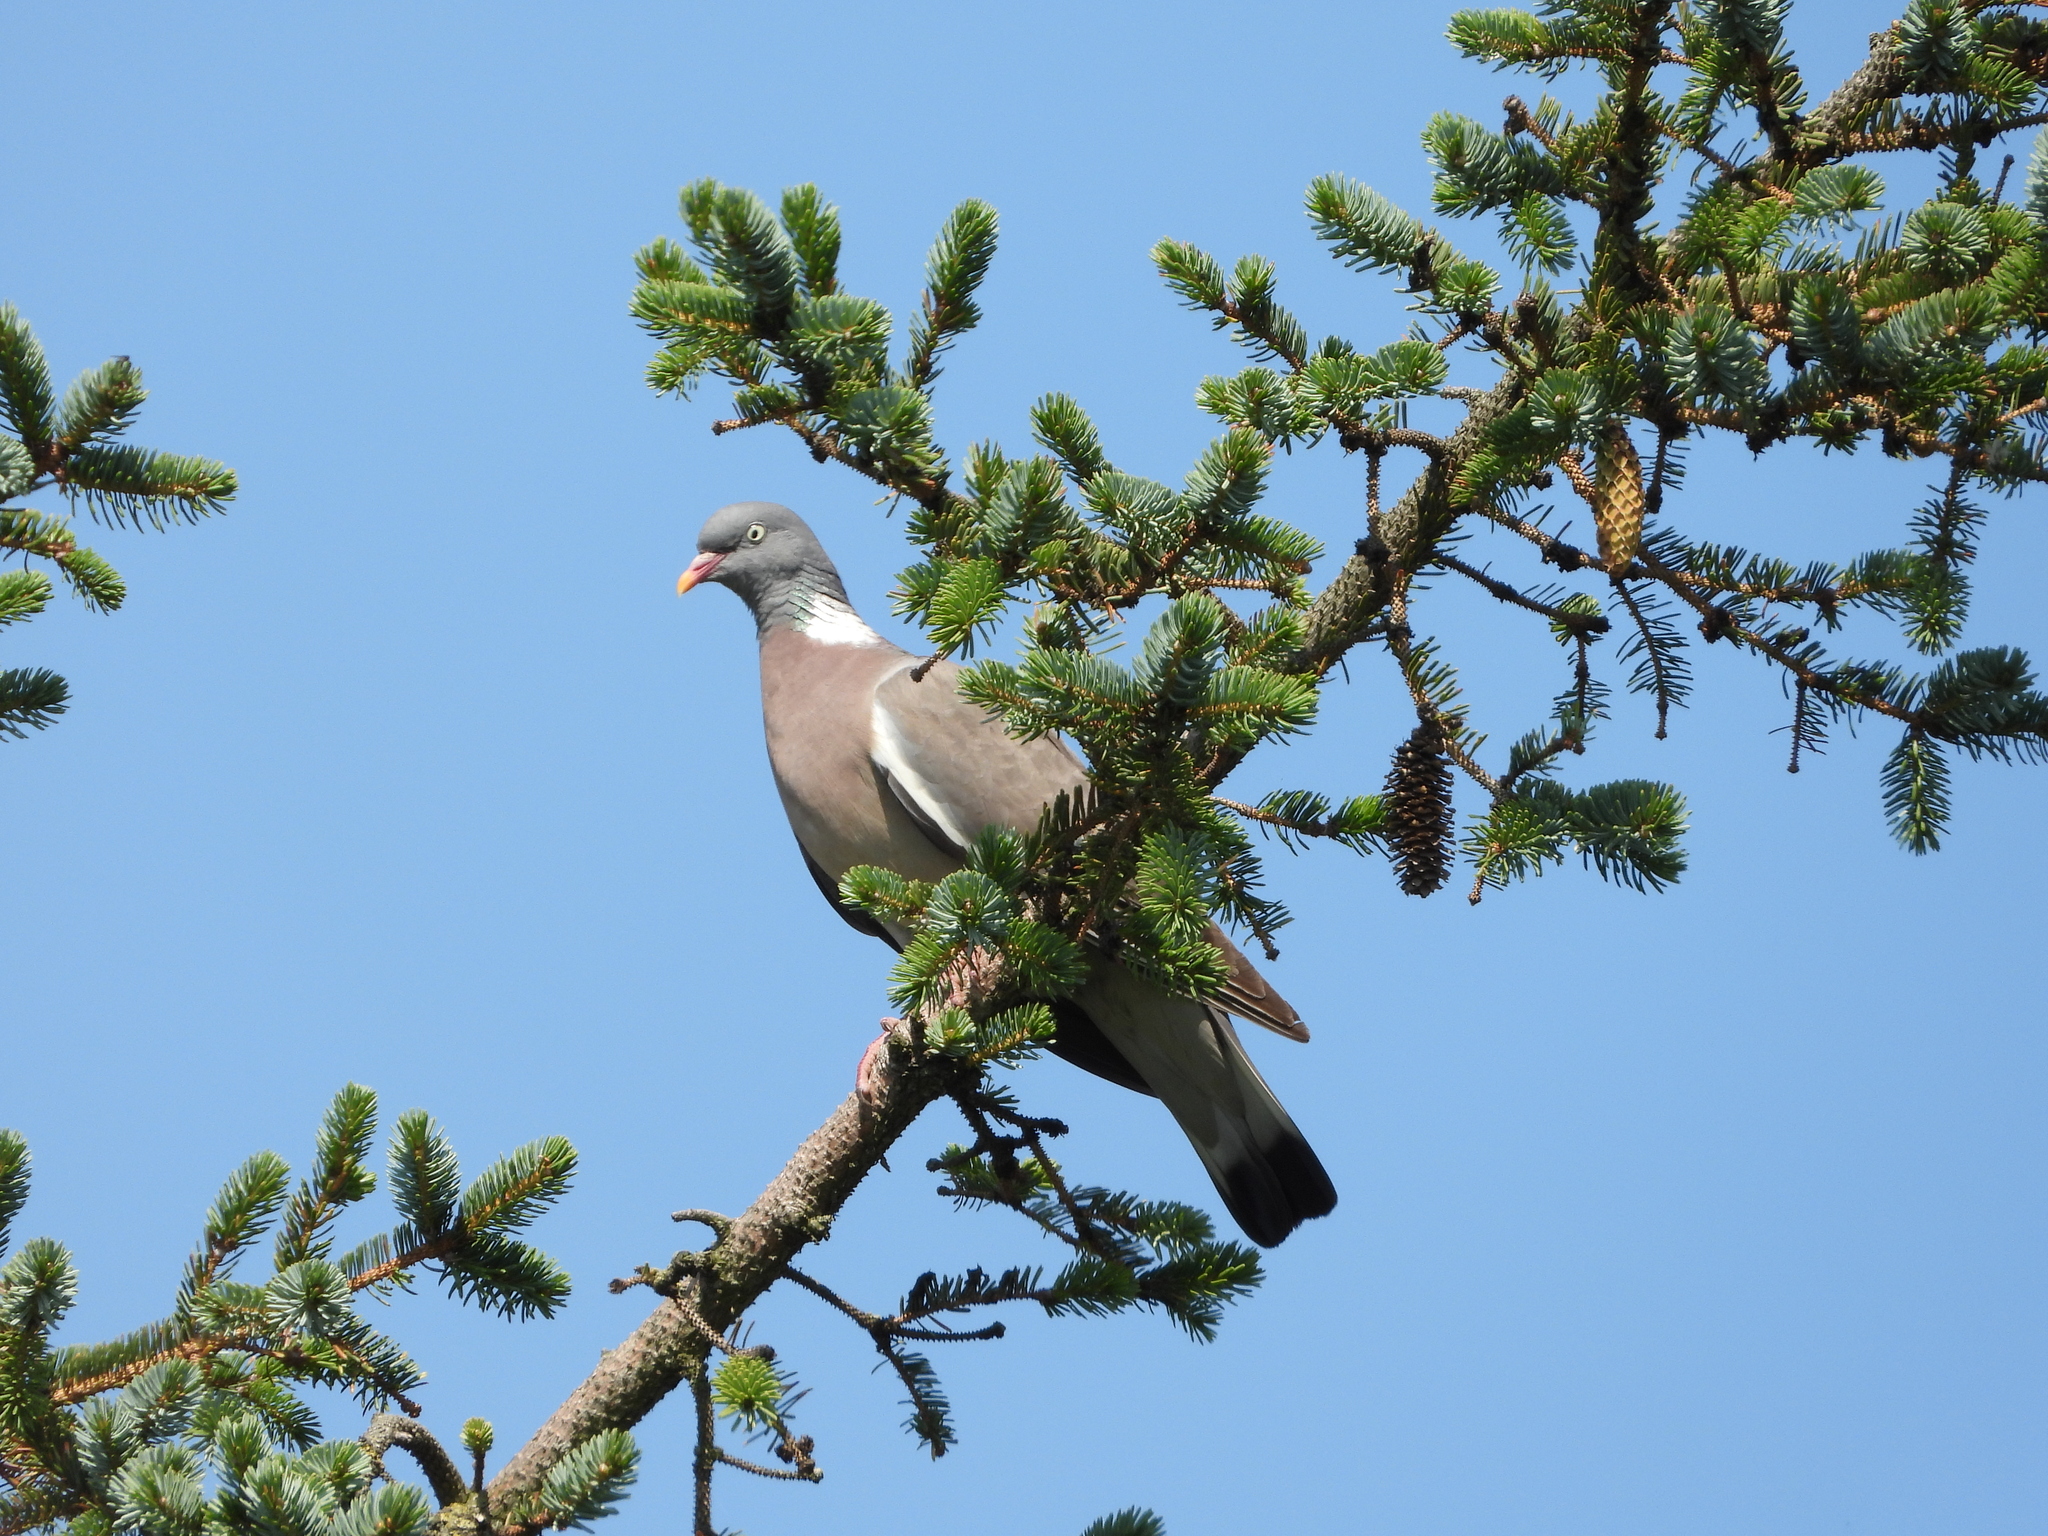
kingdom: Animalia
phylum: Chordata
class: Aves
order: Columbiformes
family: Columbidae
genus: Columba
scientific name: Columba palumbus
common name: Common wood pigeon
